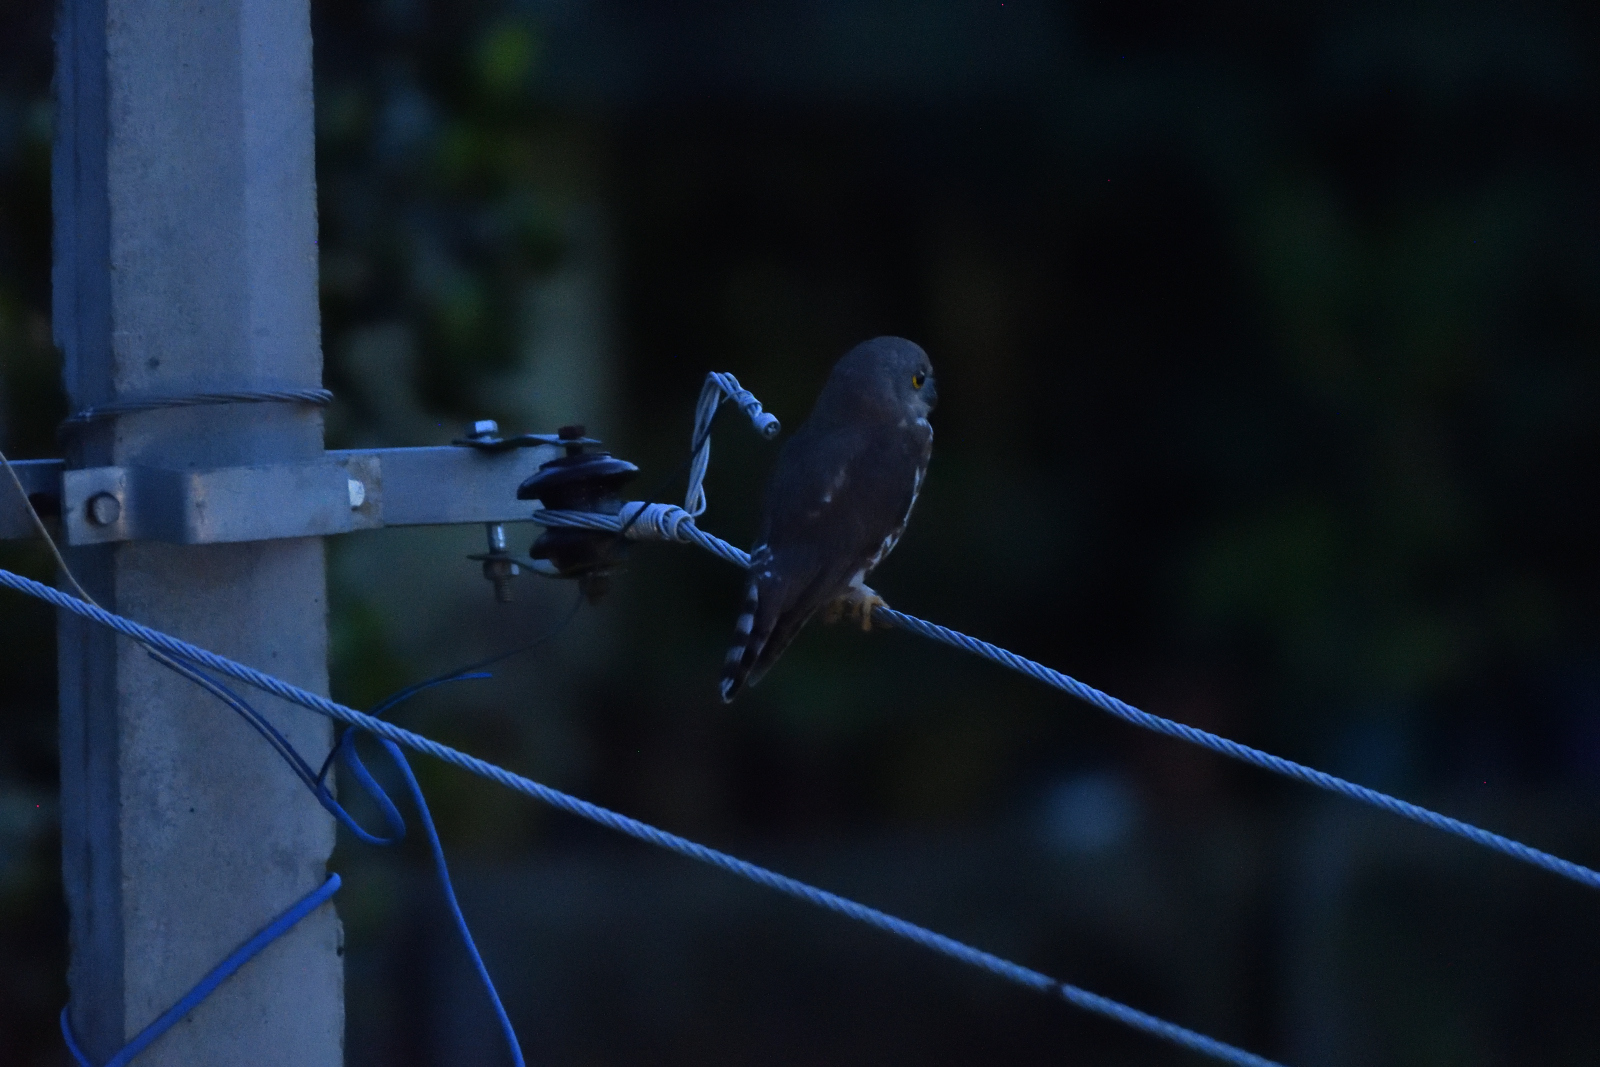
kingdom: Animalia
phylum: Chordata
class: Aves
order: Strigiformes
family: Strigidae
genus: Ninox
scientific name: Ninox scutulata
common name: Brown hawk-owl
